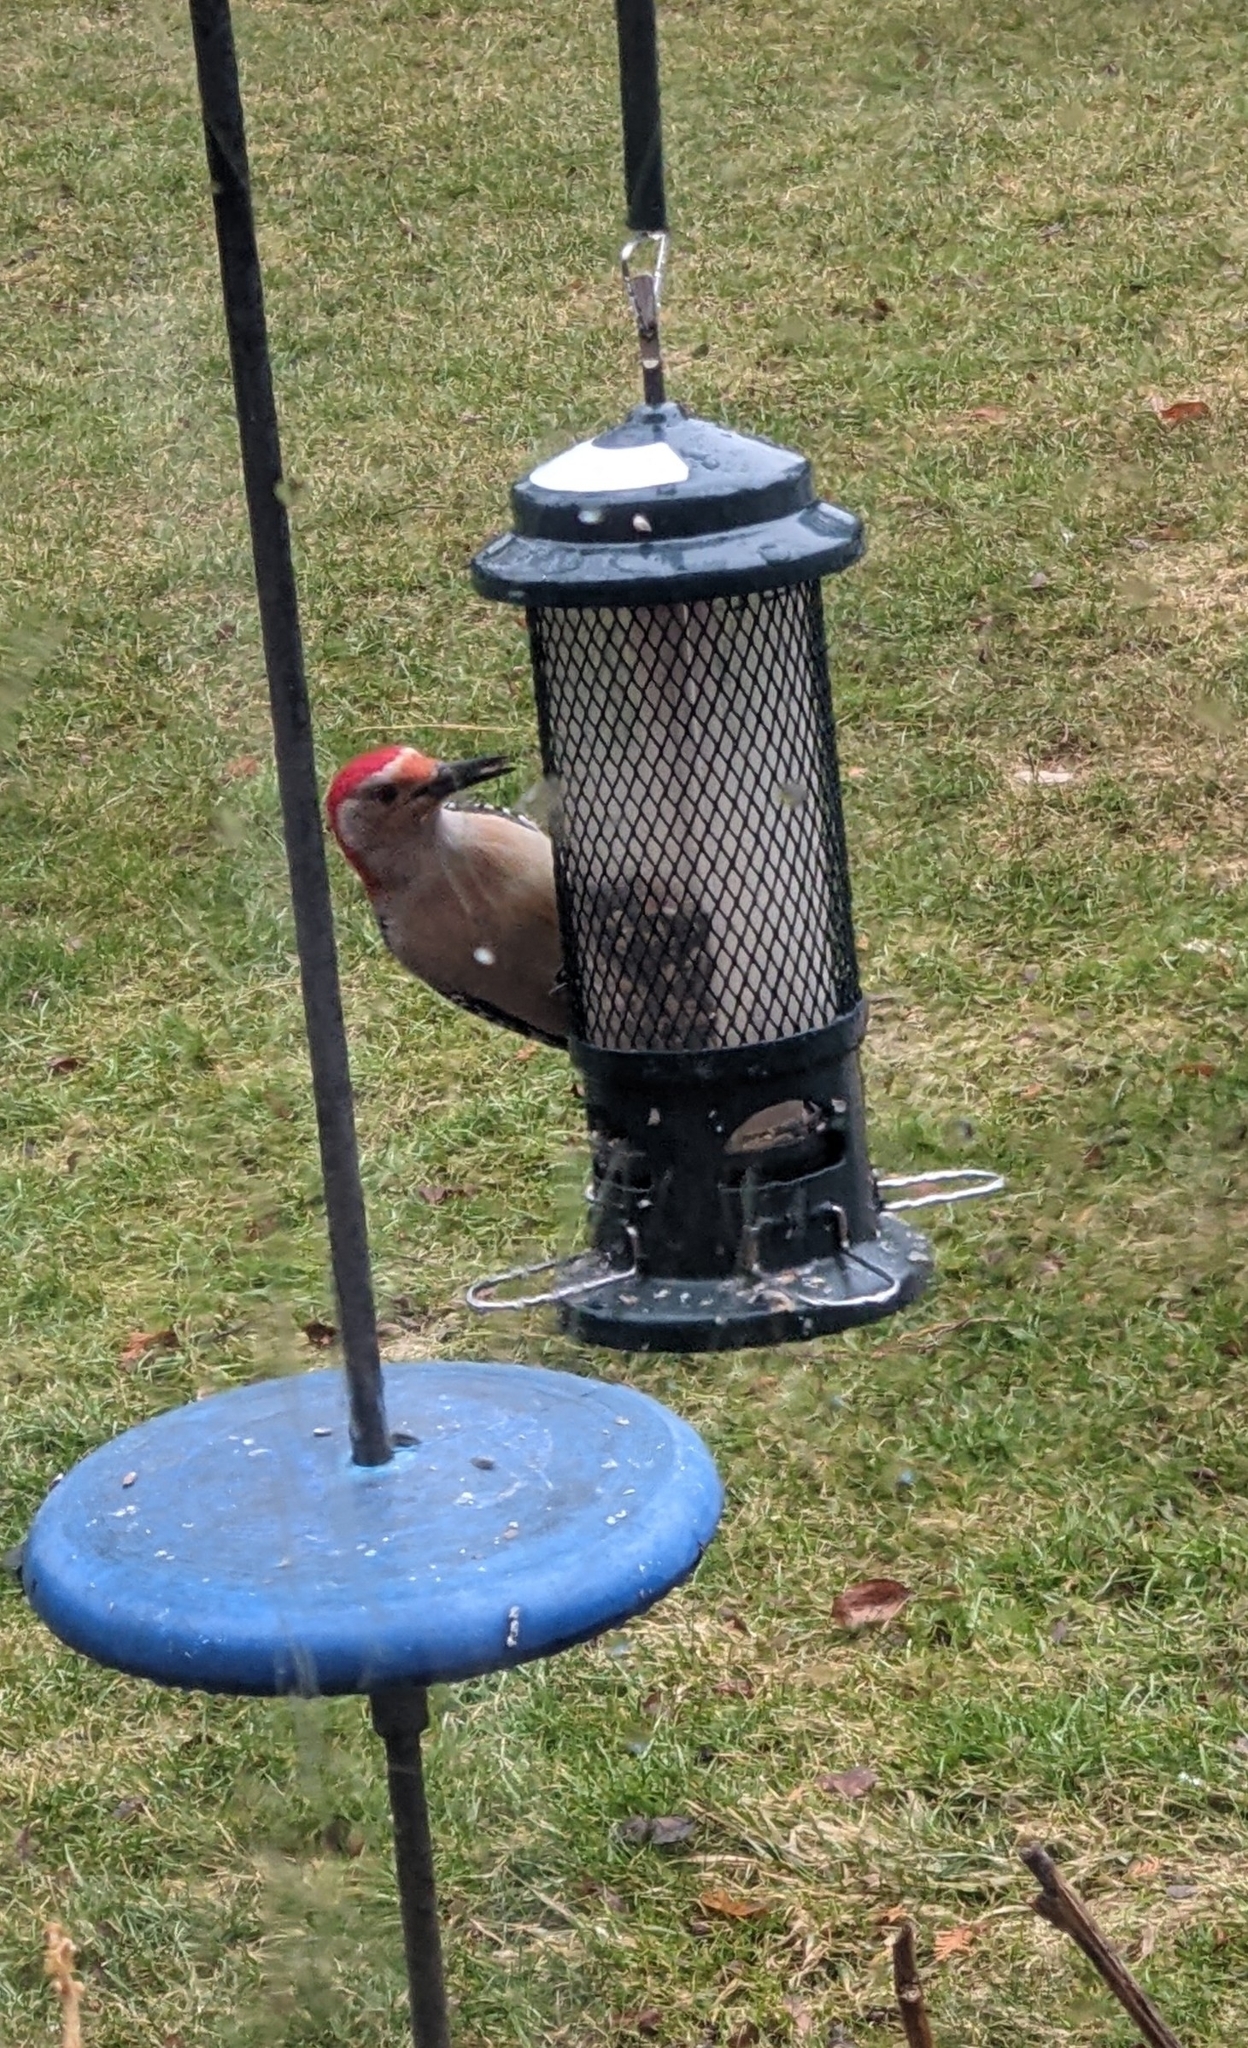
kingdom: Animalia
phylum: Chordata
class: Aves
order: Piciformes
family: Picidae
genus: Melanerpes
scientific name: Melanerpes carolinus
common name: Red-bellied woodpecker
